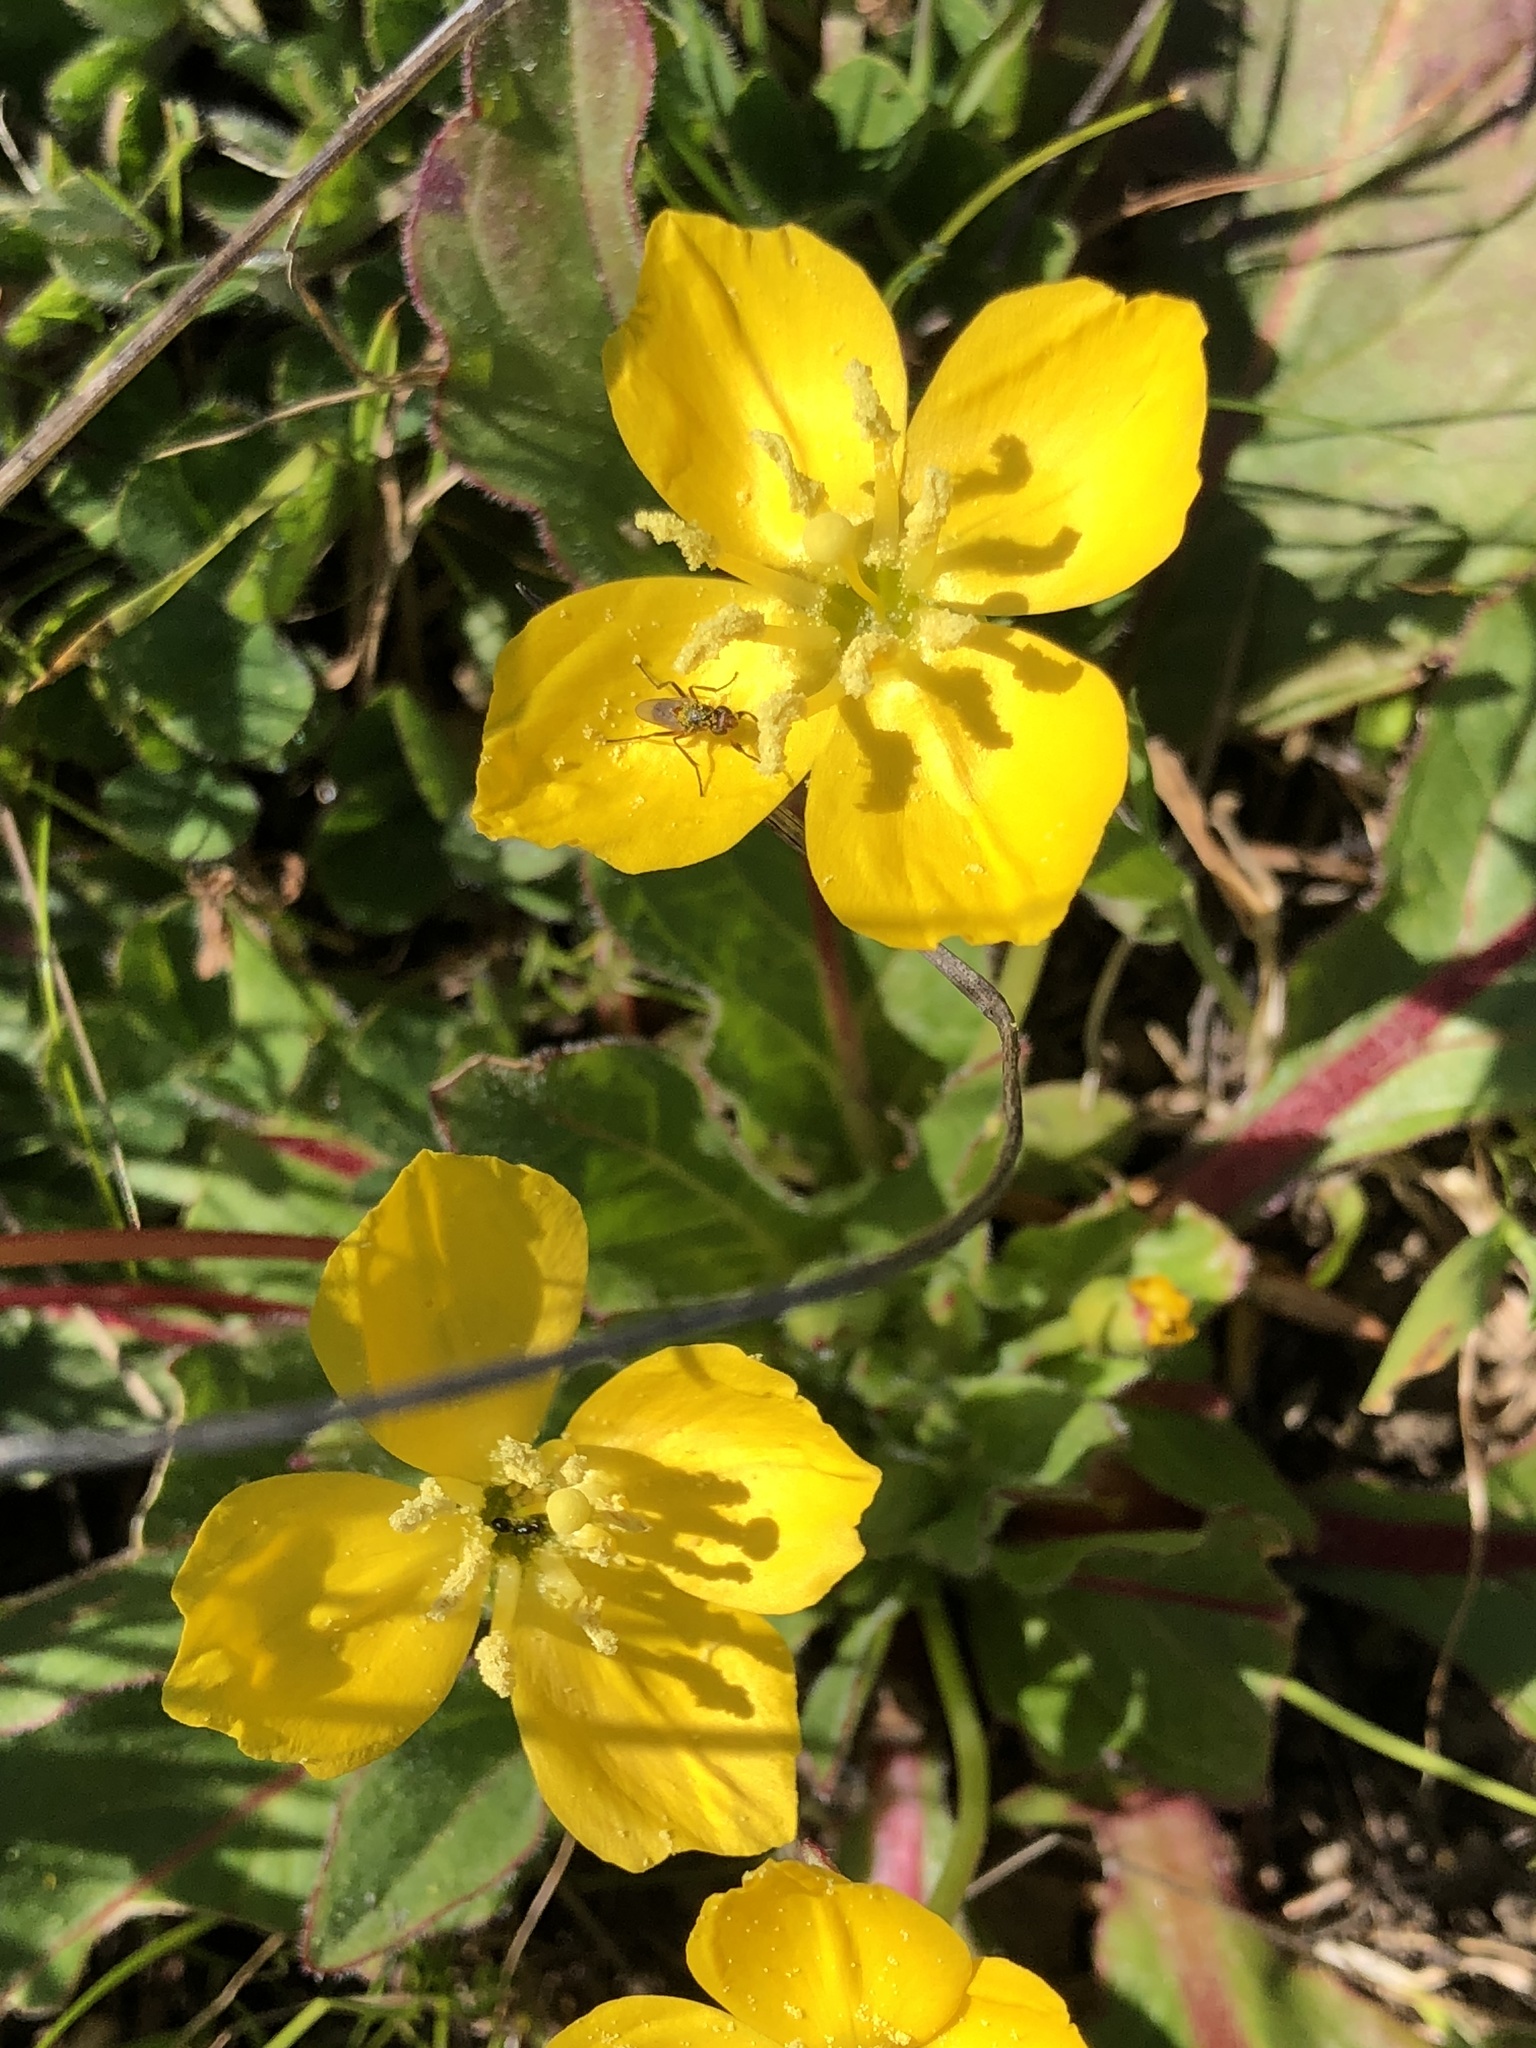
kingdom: Plantae
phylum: Tracheophyta
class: Magnoliopsida
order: Myrtales
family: Onagraceae
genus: Taraxia
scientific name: Taraxia ovata
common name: Goldeneggs
